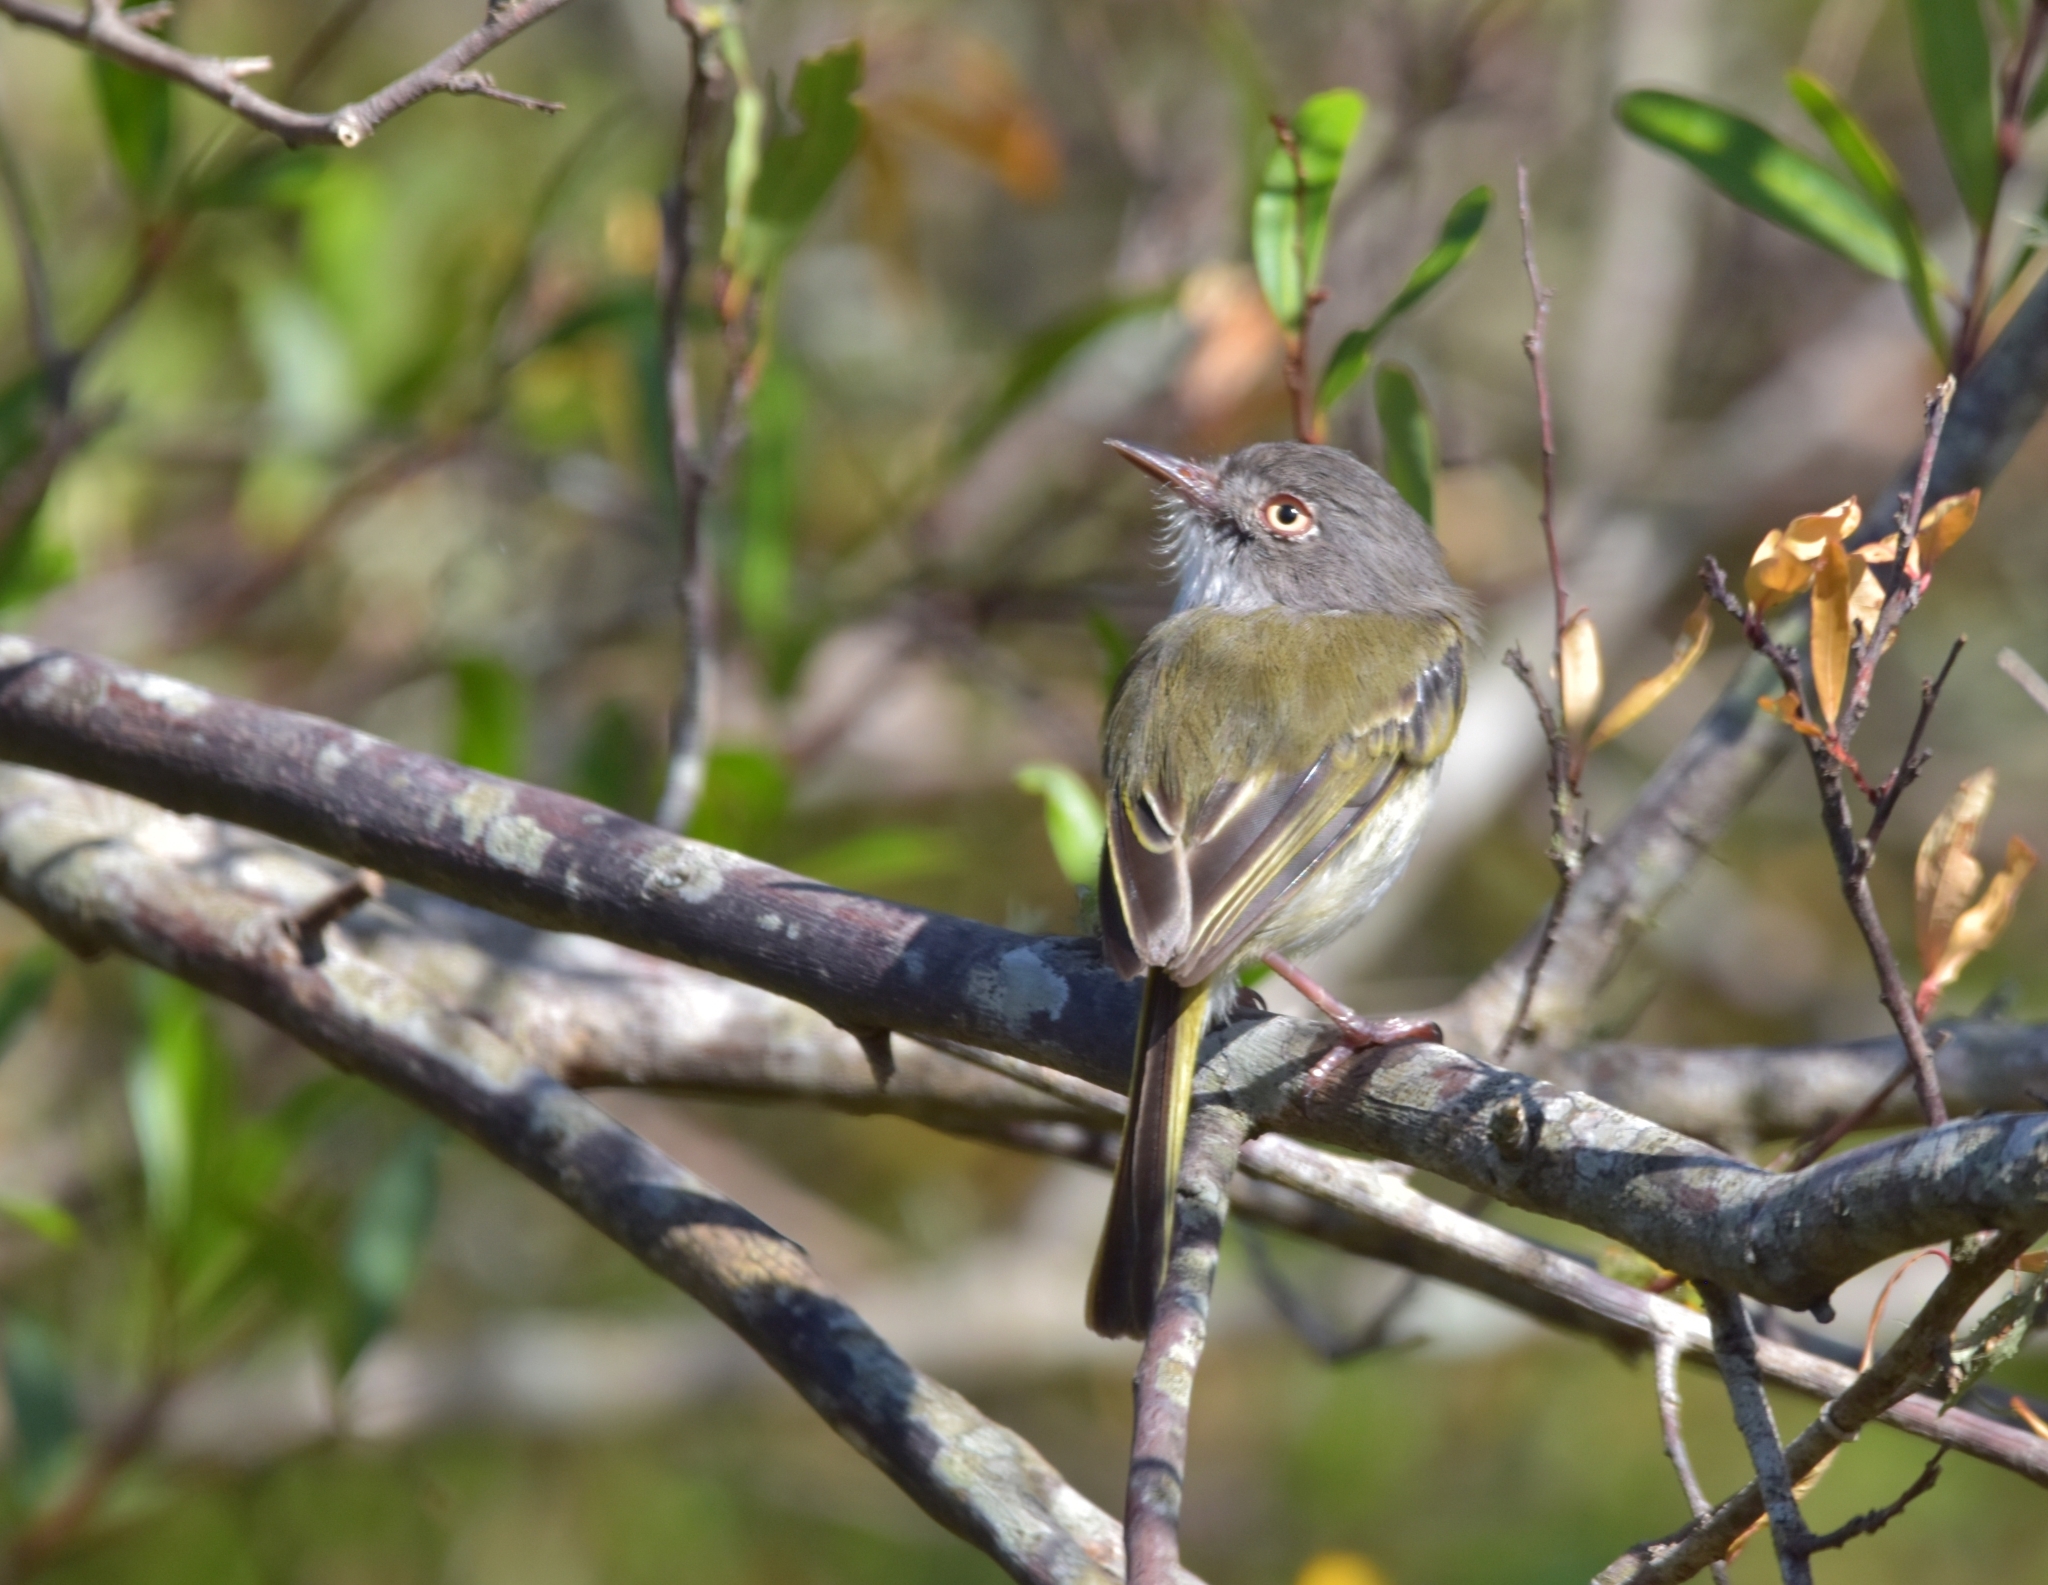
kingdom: Animalia
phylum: Chordata
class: Aves
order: Passeriformes
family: Tyrannidae
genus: Hemitriccus
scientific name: Hemitriccus margaritaceiventer
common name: Pearly-vented tody-tyrant
